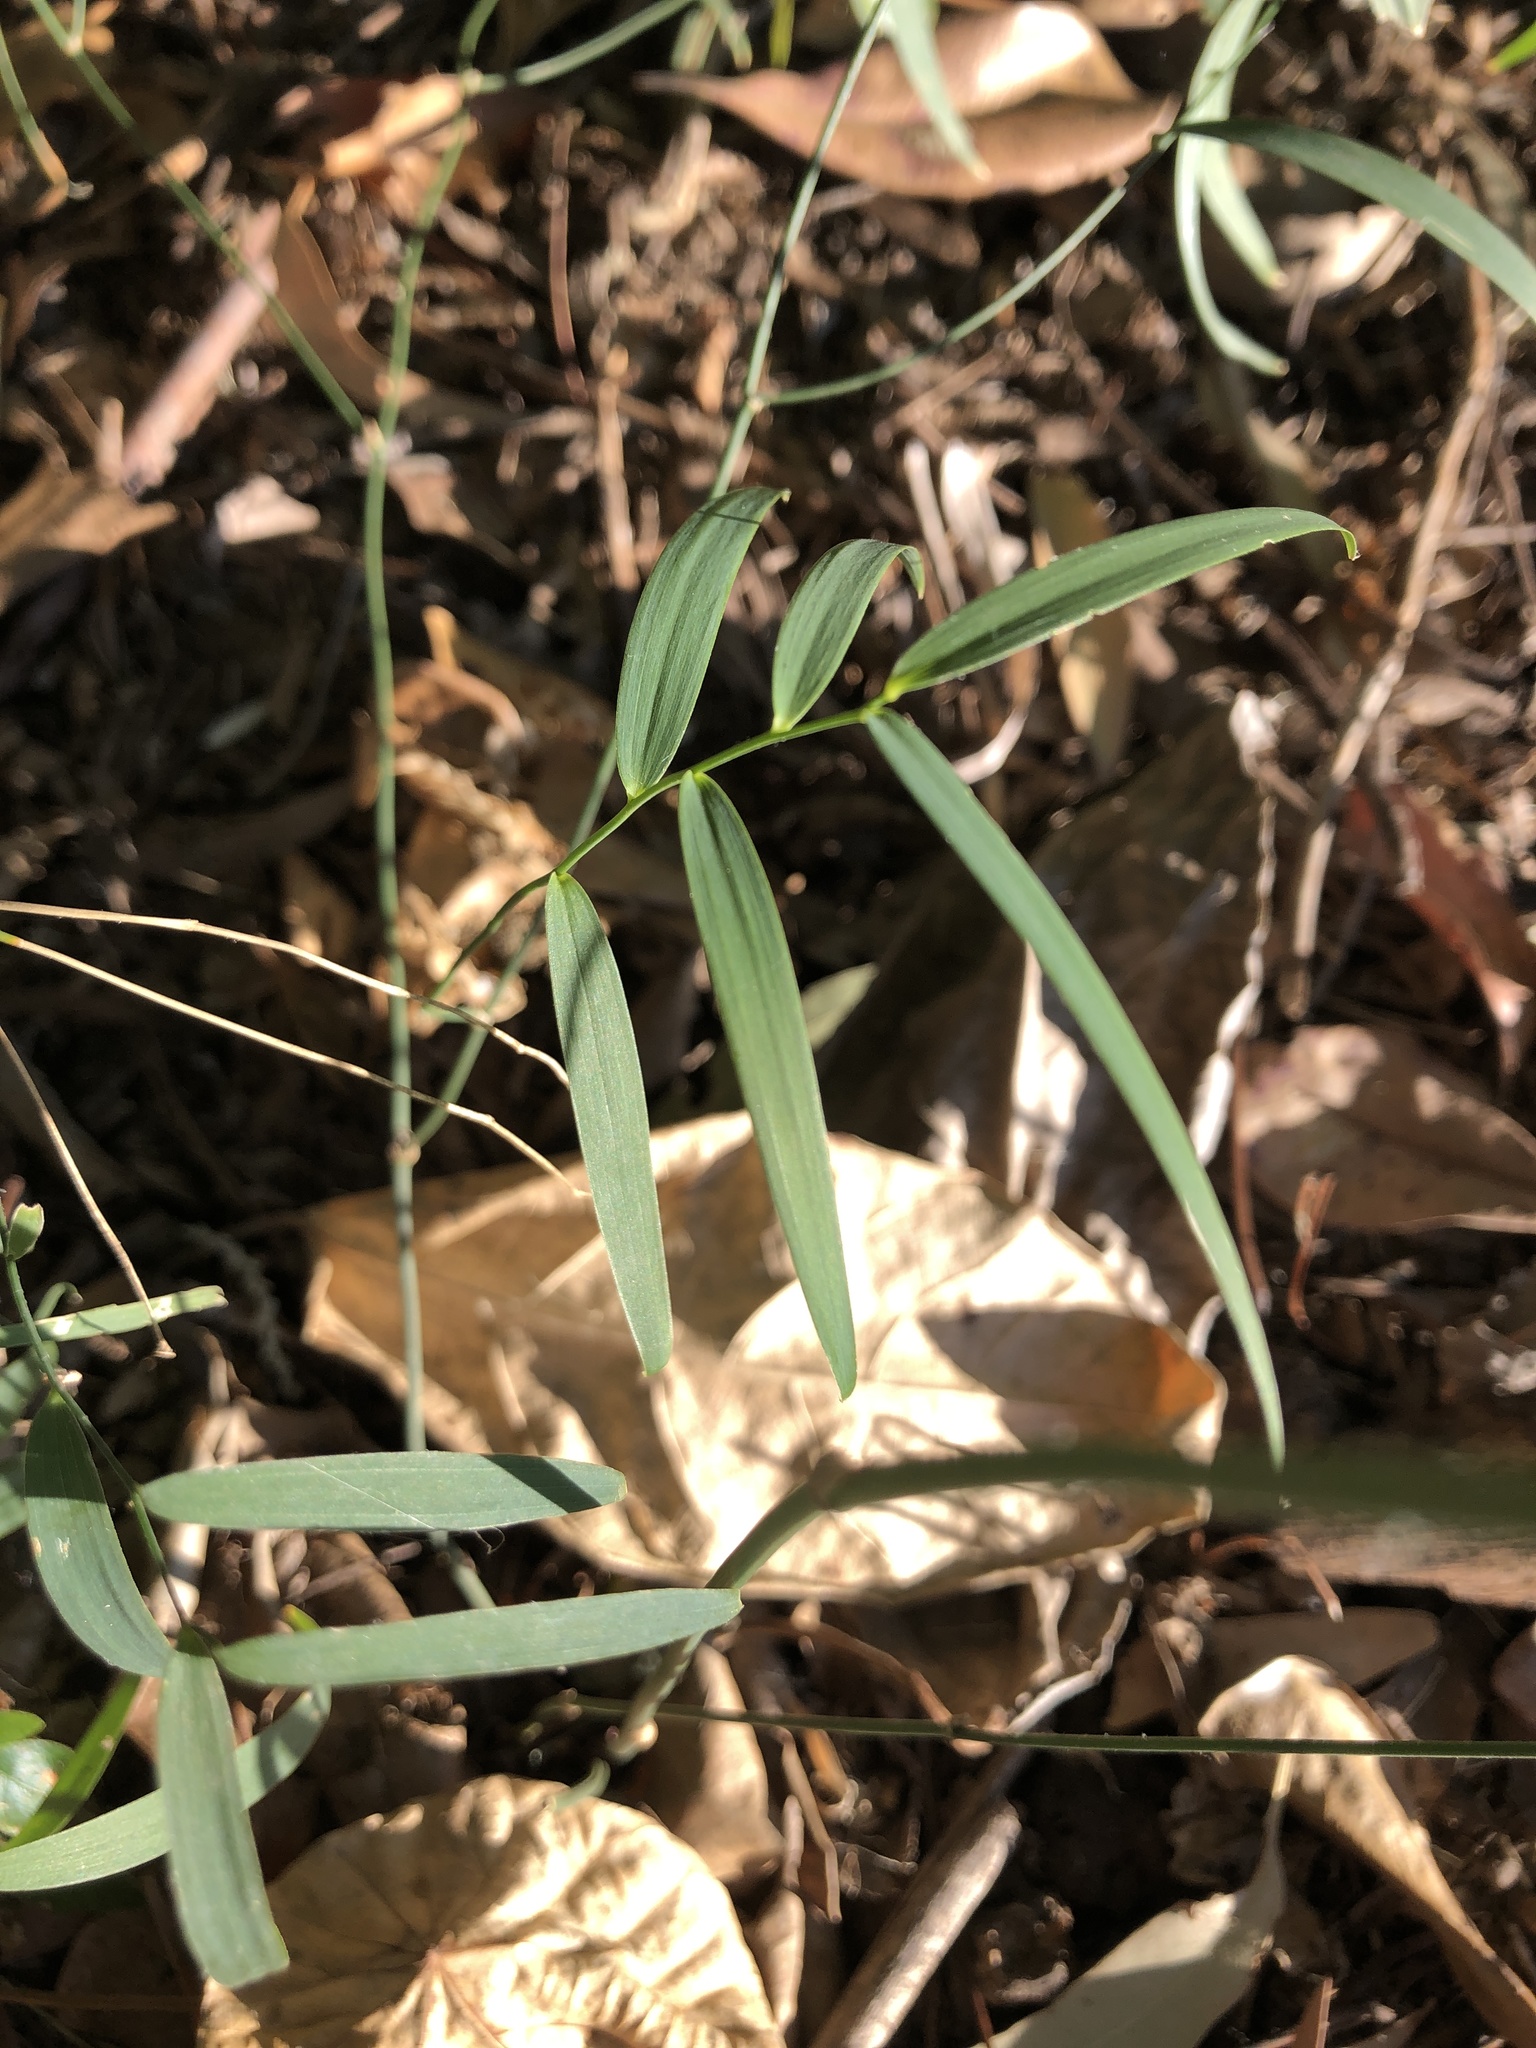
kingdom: Plantae
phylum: Tracheophyta
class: Liliopsida
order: Asparagales
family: Asparagaceae
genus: Eustrephus
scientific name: Eustrephus latifolius
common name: Orangevine
